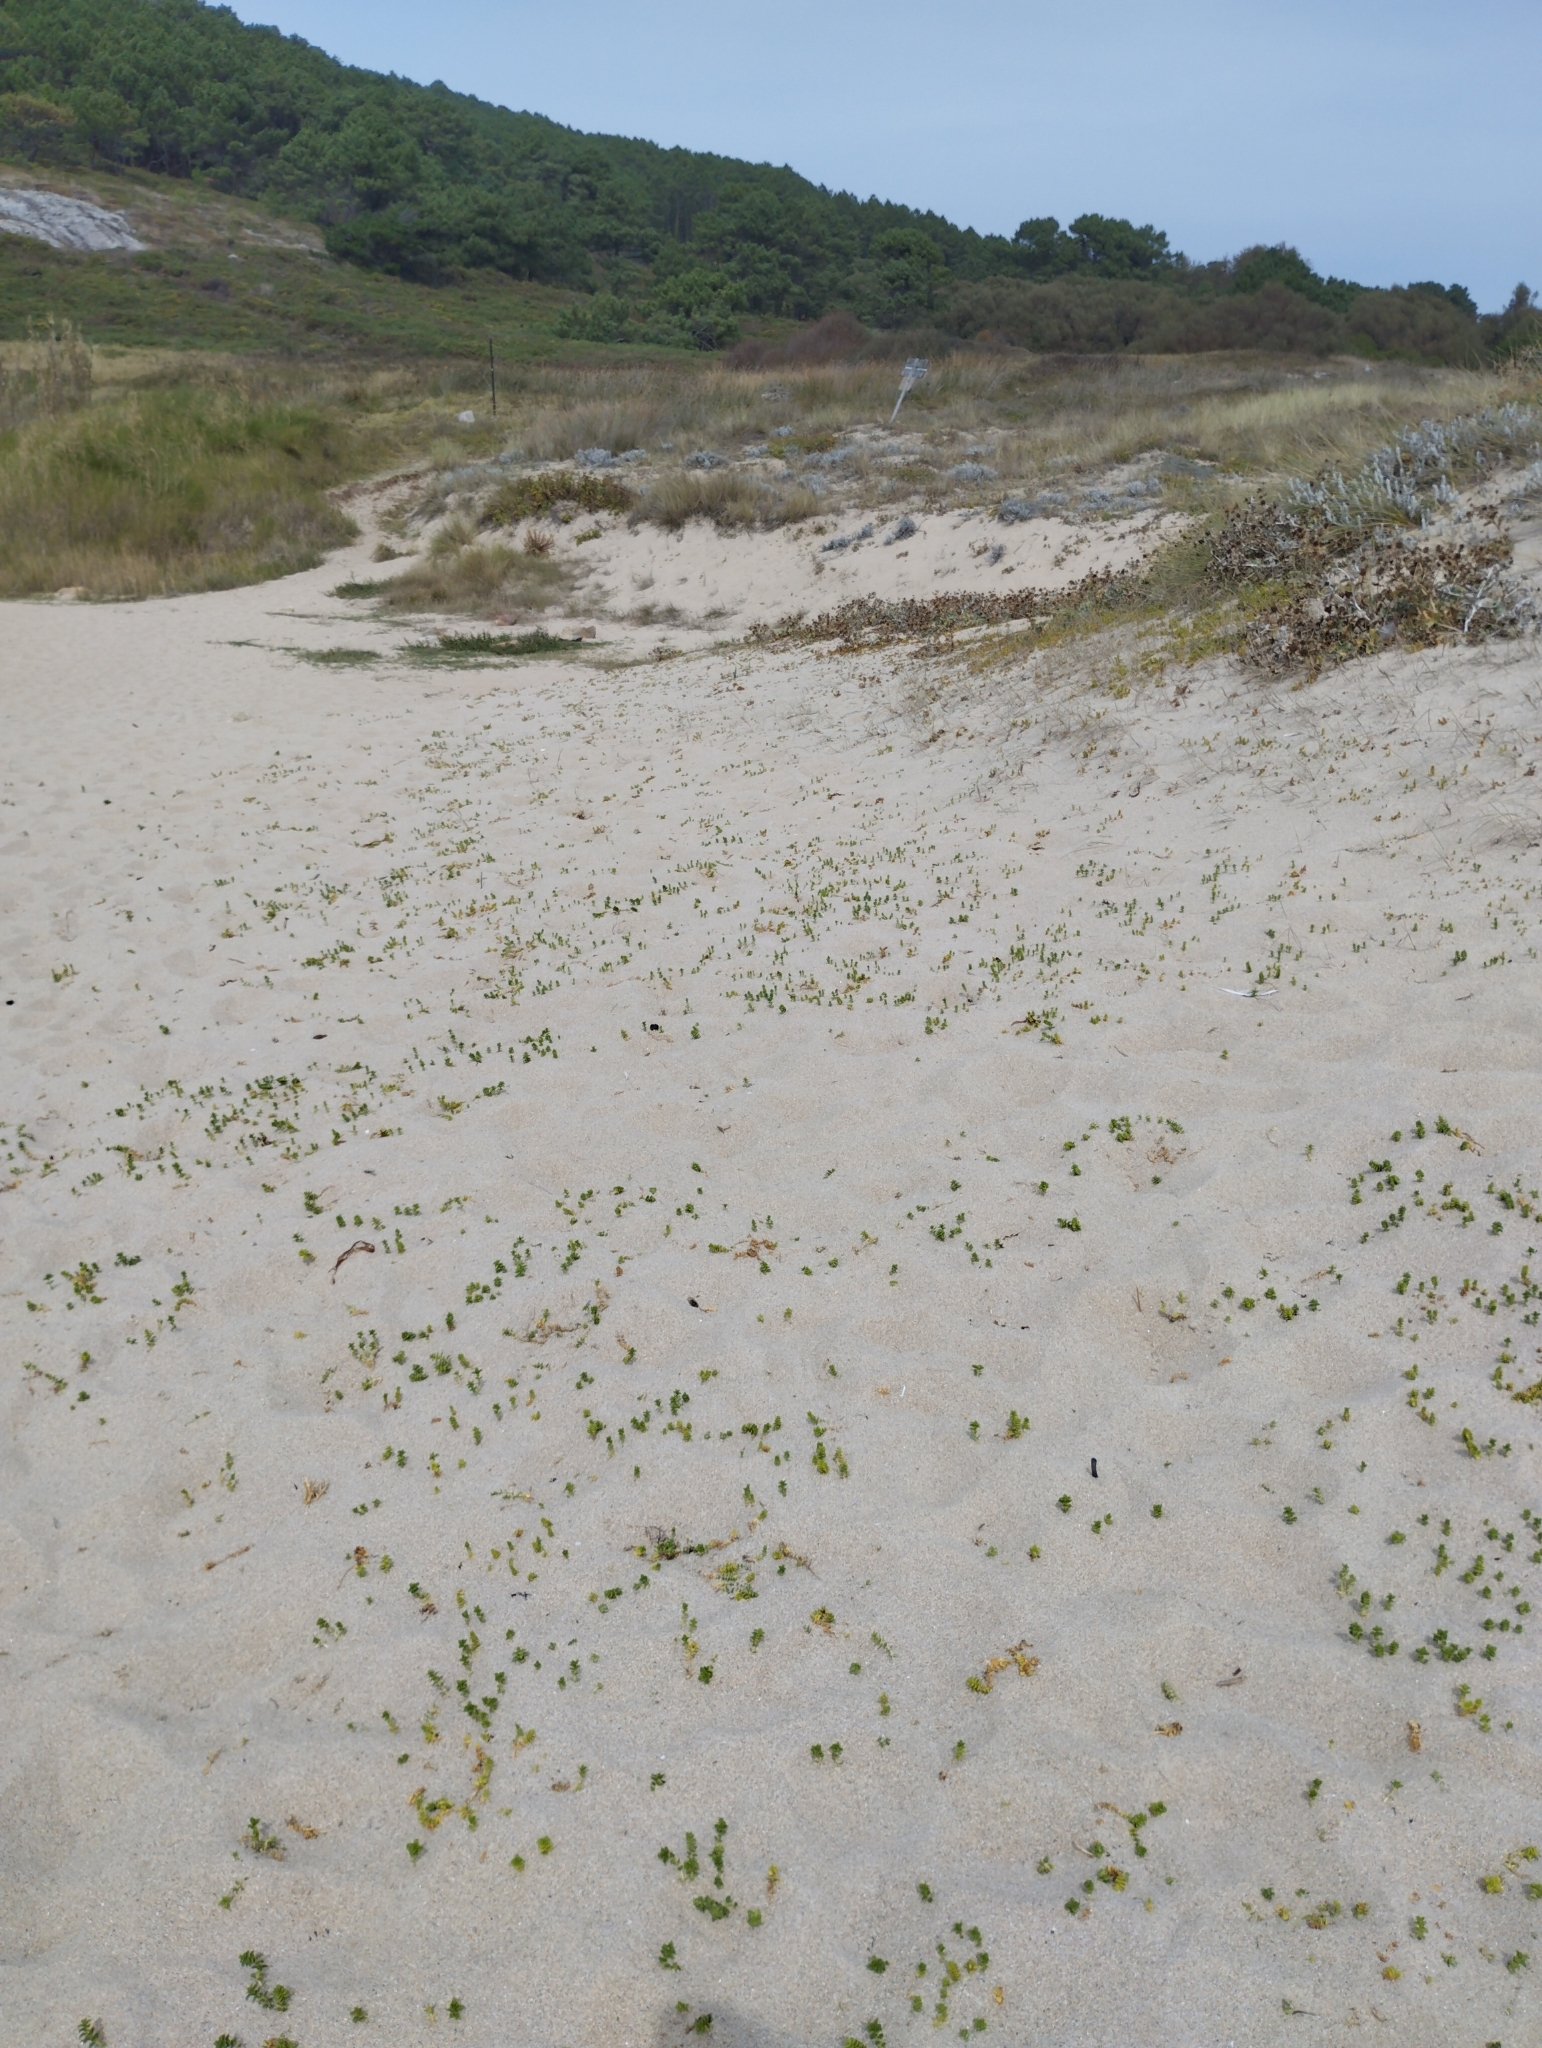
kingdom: Plantae
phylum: Tracheophyta
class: Magnoliopsida
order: Caryophyllales
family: Caryophyllaceae
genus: Honckenya
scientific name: Honckenya peploides
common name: Sea sandwort
